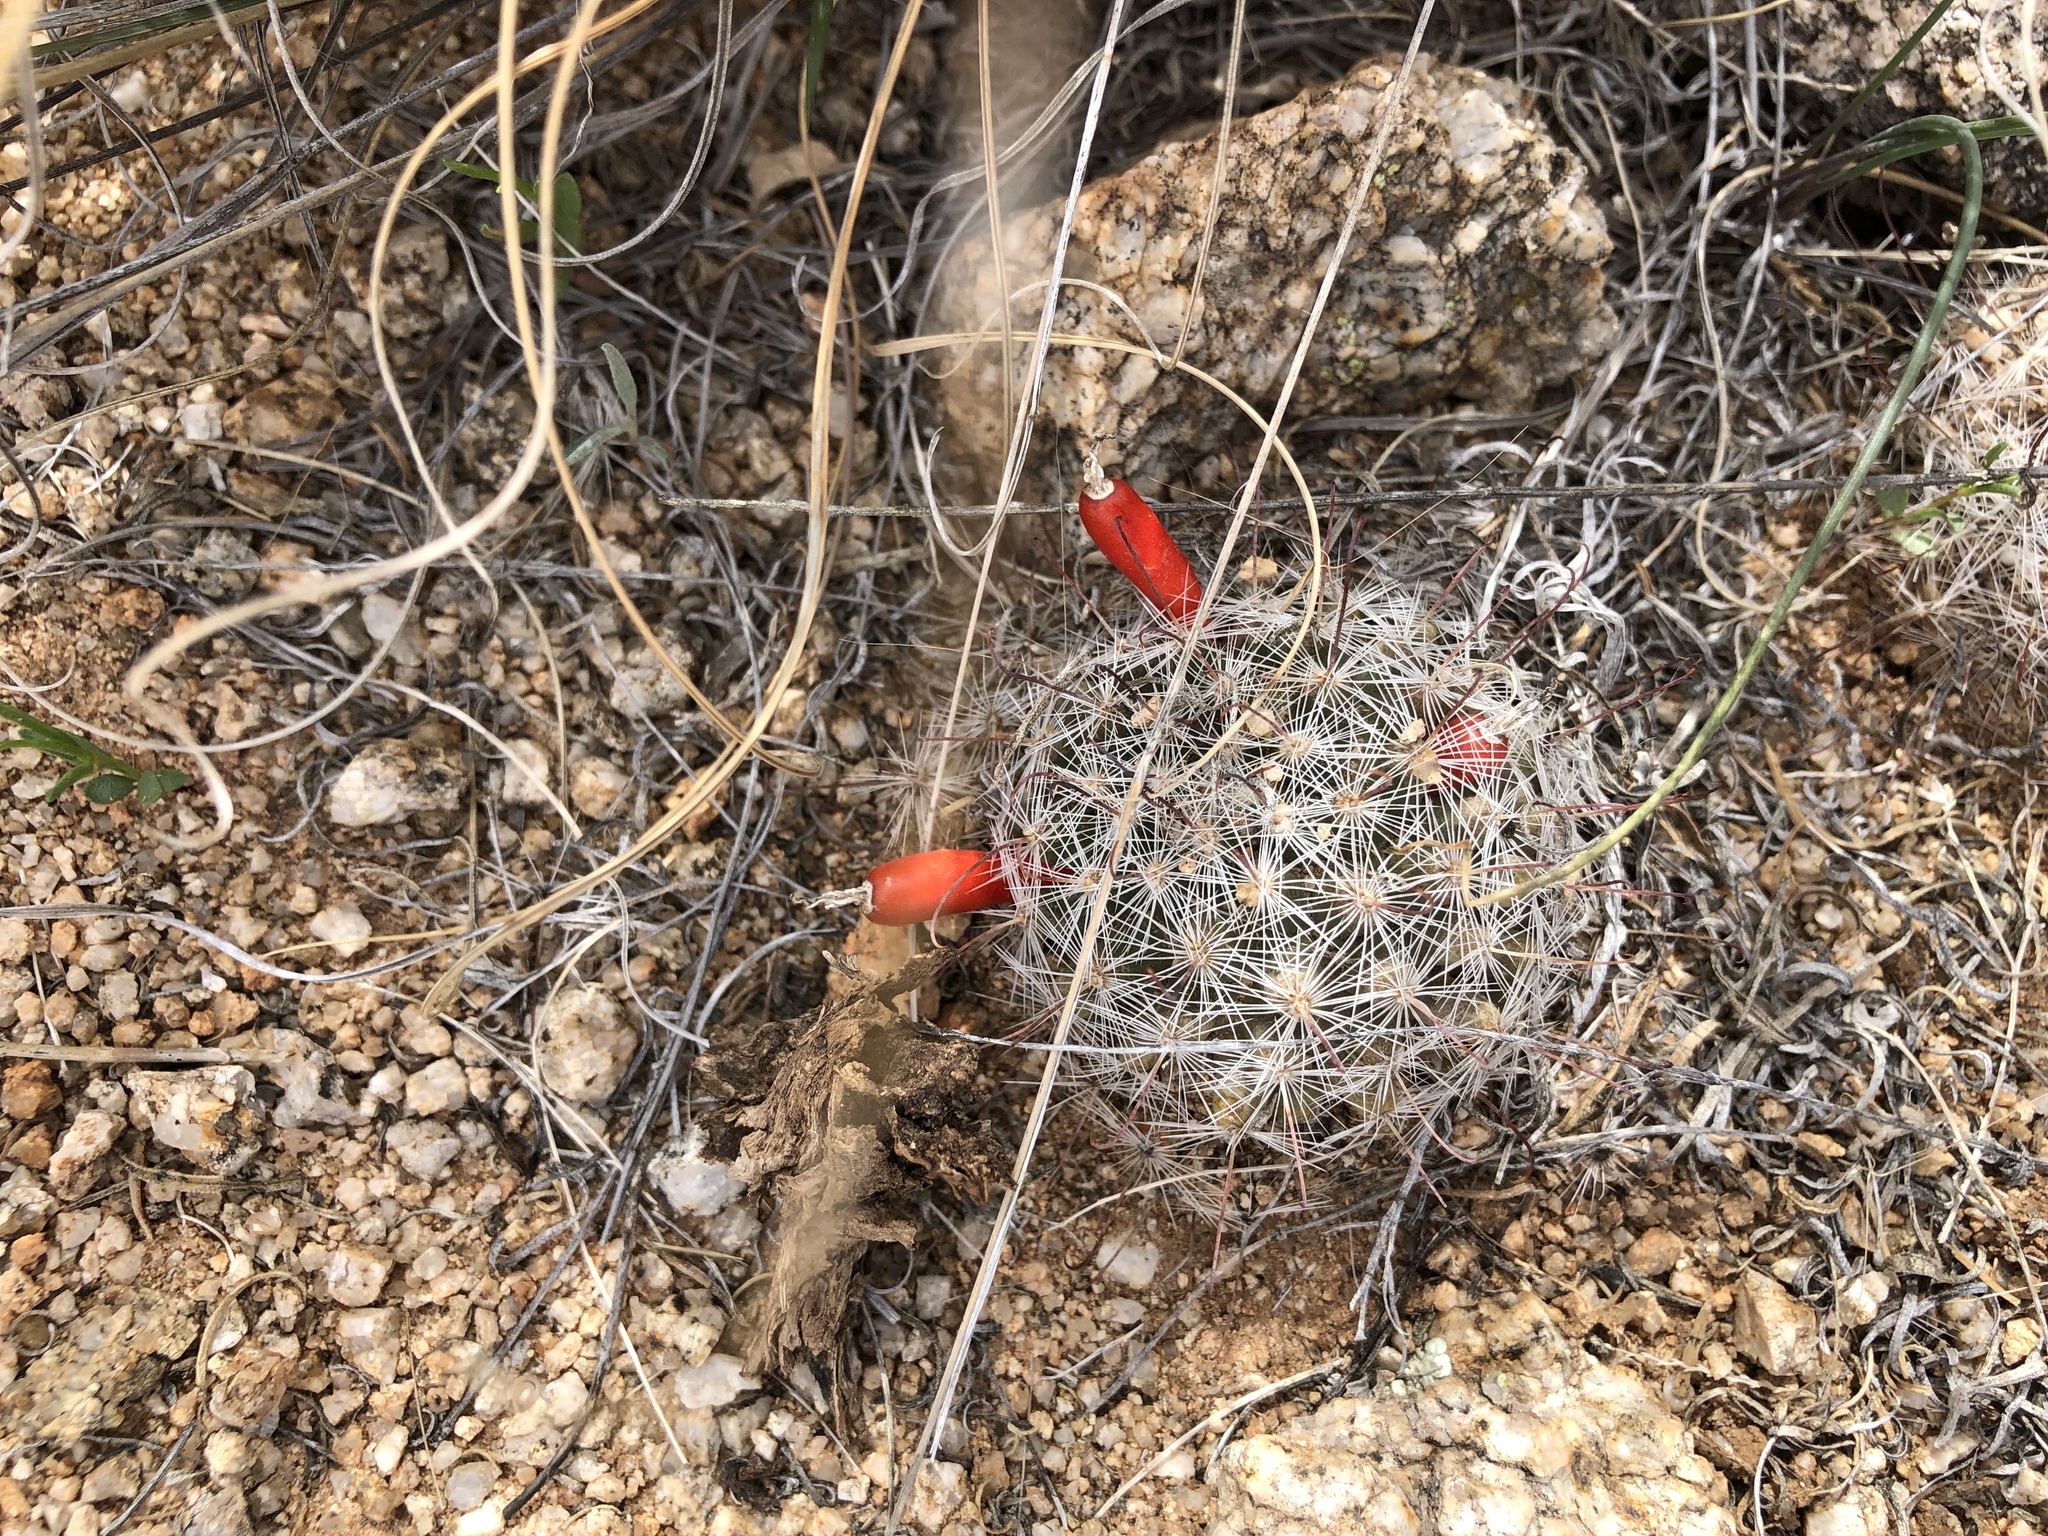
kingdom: Plantae
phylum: Tracheophyta
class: Magnoliopsida
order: Caryophyllales
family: Cactaceae
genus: Cochemiea
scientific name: Cochemiea grahamii
